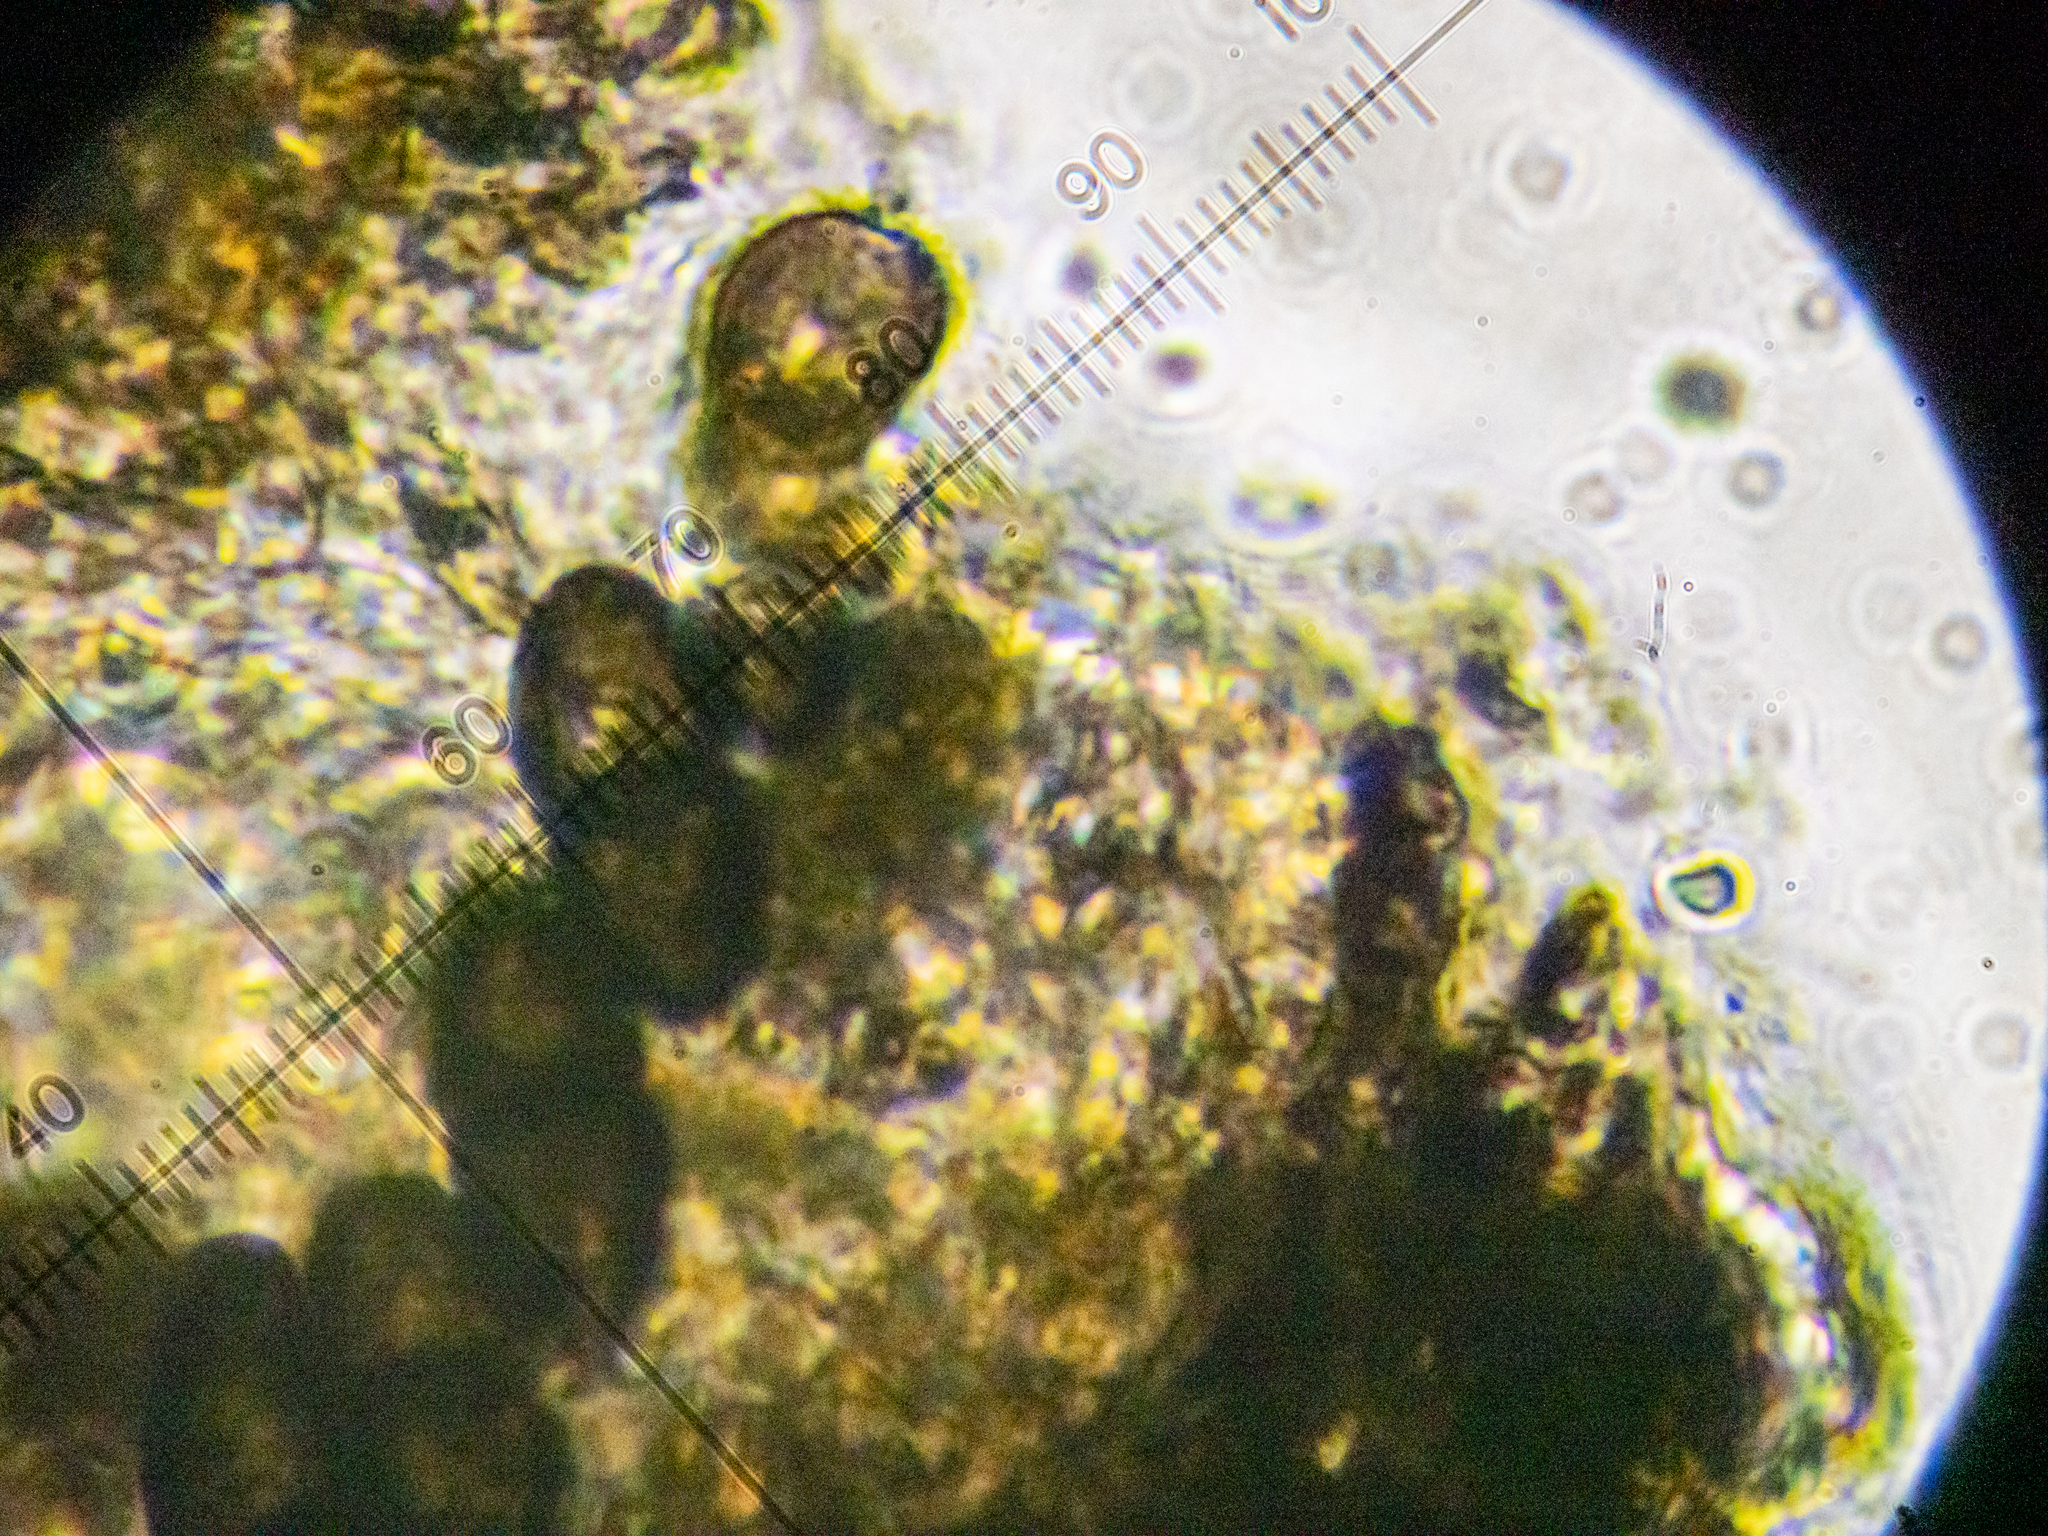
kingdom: Fungi
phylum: Ascomycota
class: Dothideomycetes
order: Trypetheliales
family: Polycoccaceae
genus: Polycoccum
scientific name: Polycoccum pulvinatum
